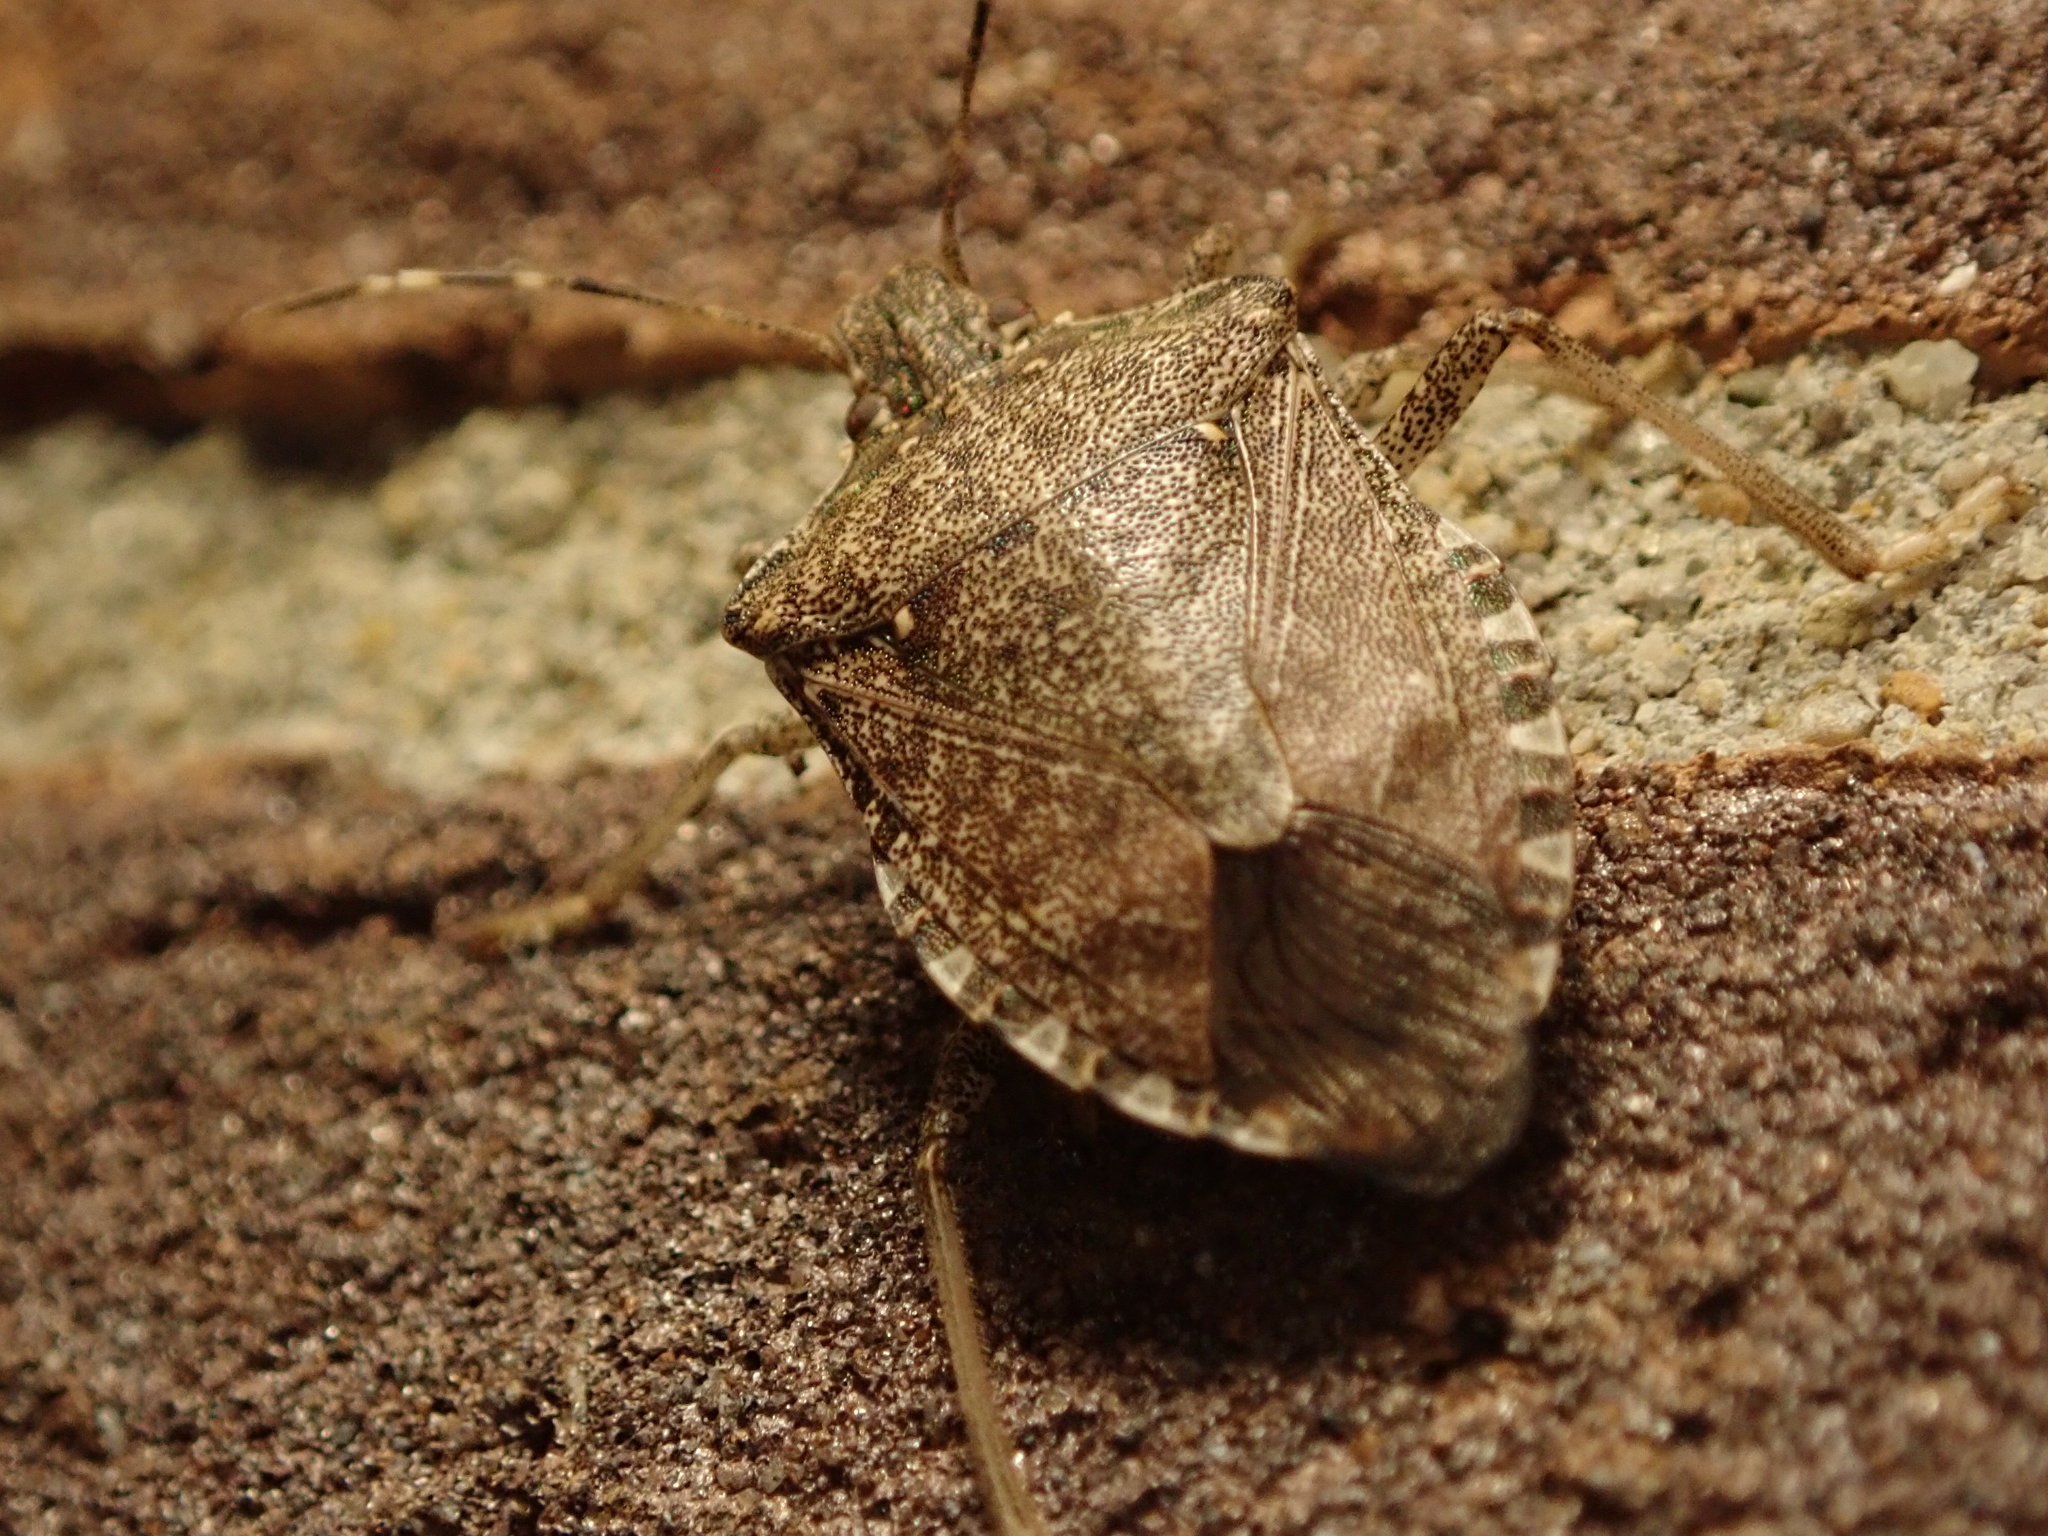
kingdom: Animalia
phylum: Arthropoda
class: Insecta
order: Hemiptera
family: Pentatomidae
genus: Halyomorpha
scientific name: Halyomorpha halys
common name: Brown marmorated stink bug
